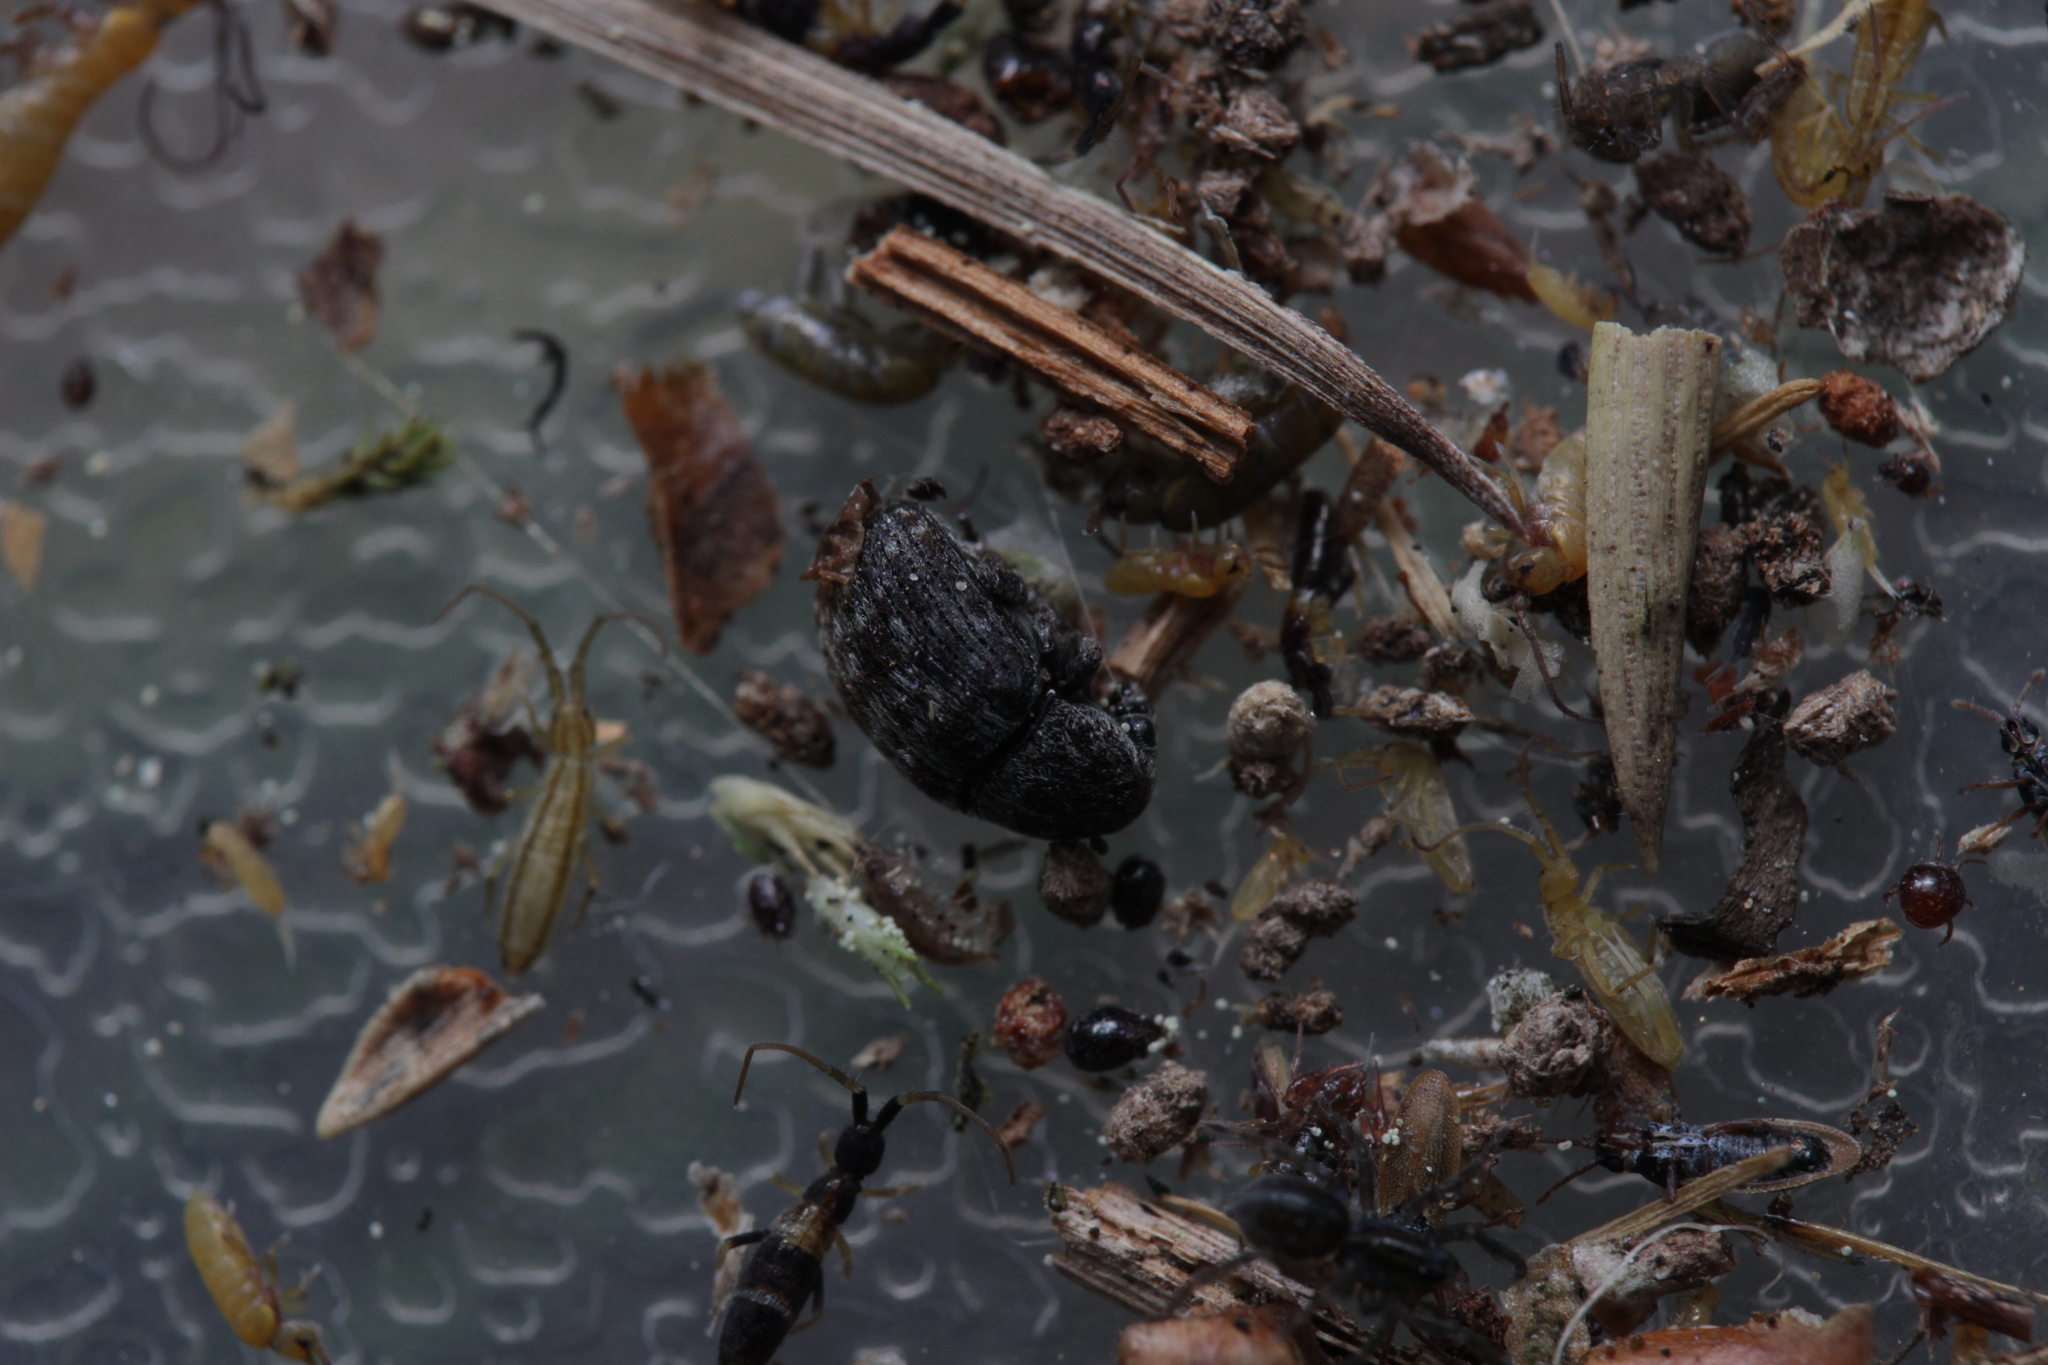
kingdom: Animalia
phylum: Arthropoda
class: Insecta
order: Coleoptera
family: Anthribidae
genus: Anthribus
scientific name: Anthribus nebulosus
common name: Fungus weevil
